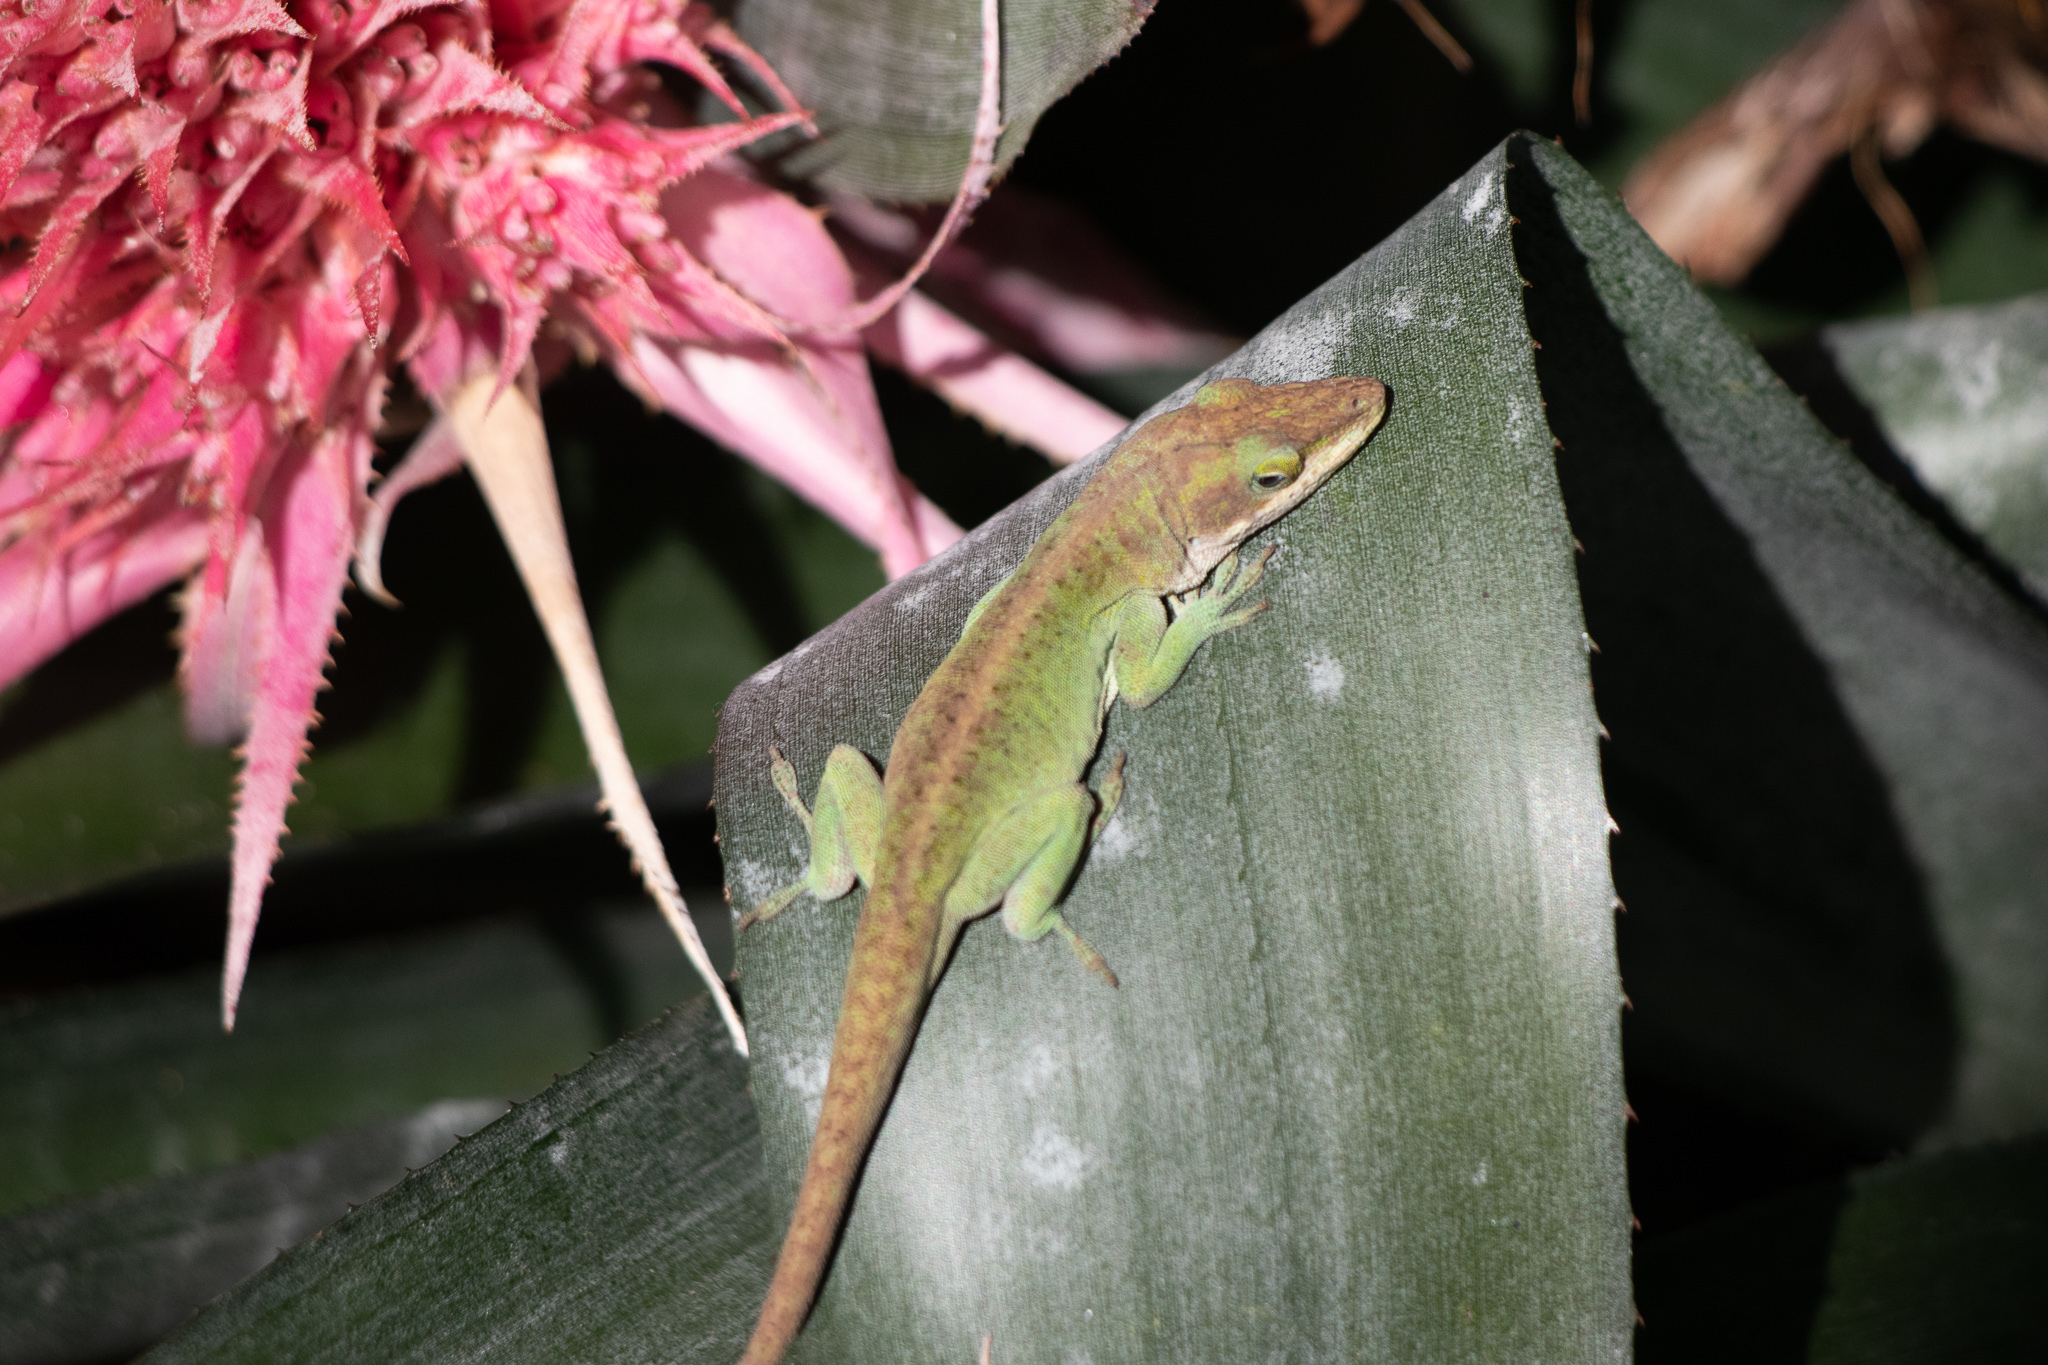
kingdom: Animalia
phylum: Chordata
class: Squamata
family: Dactyloidae
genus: Anolis
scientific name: Anolis carolinensis
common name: Green anole
